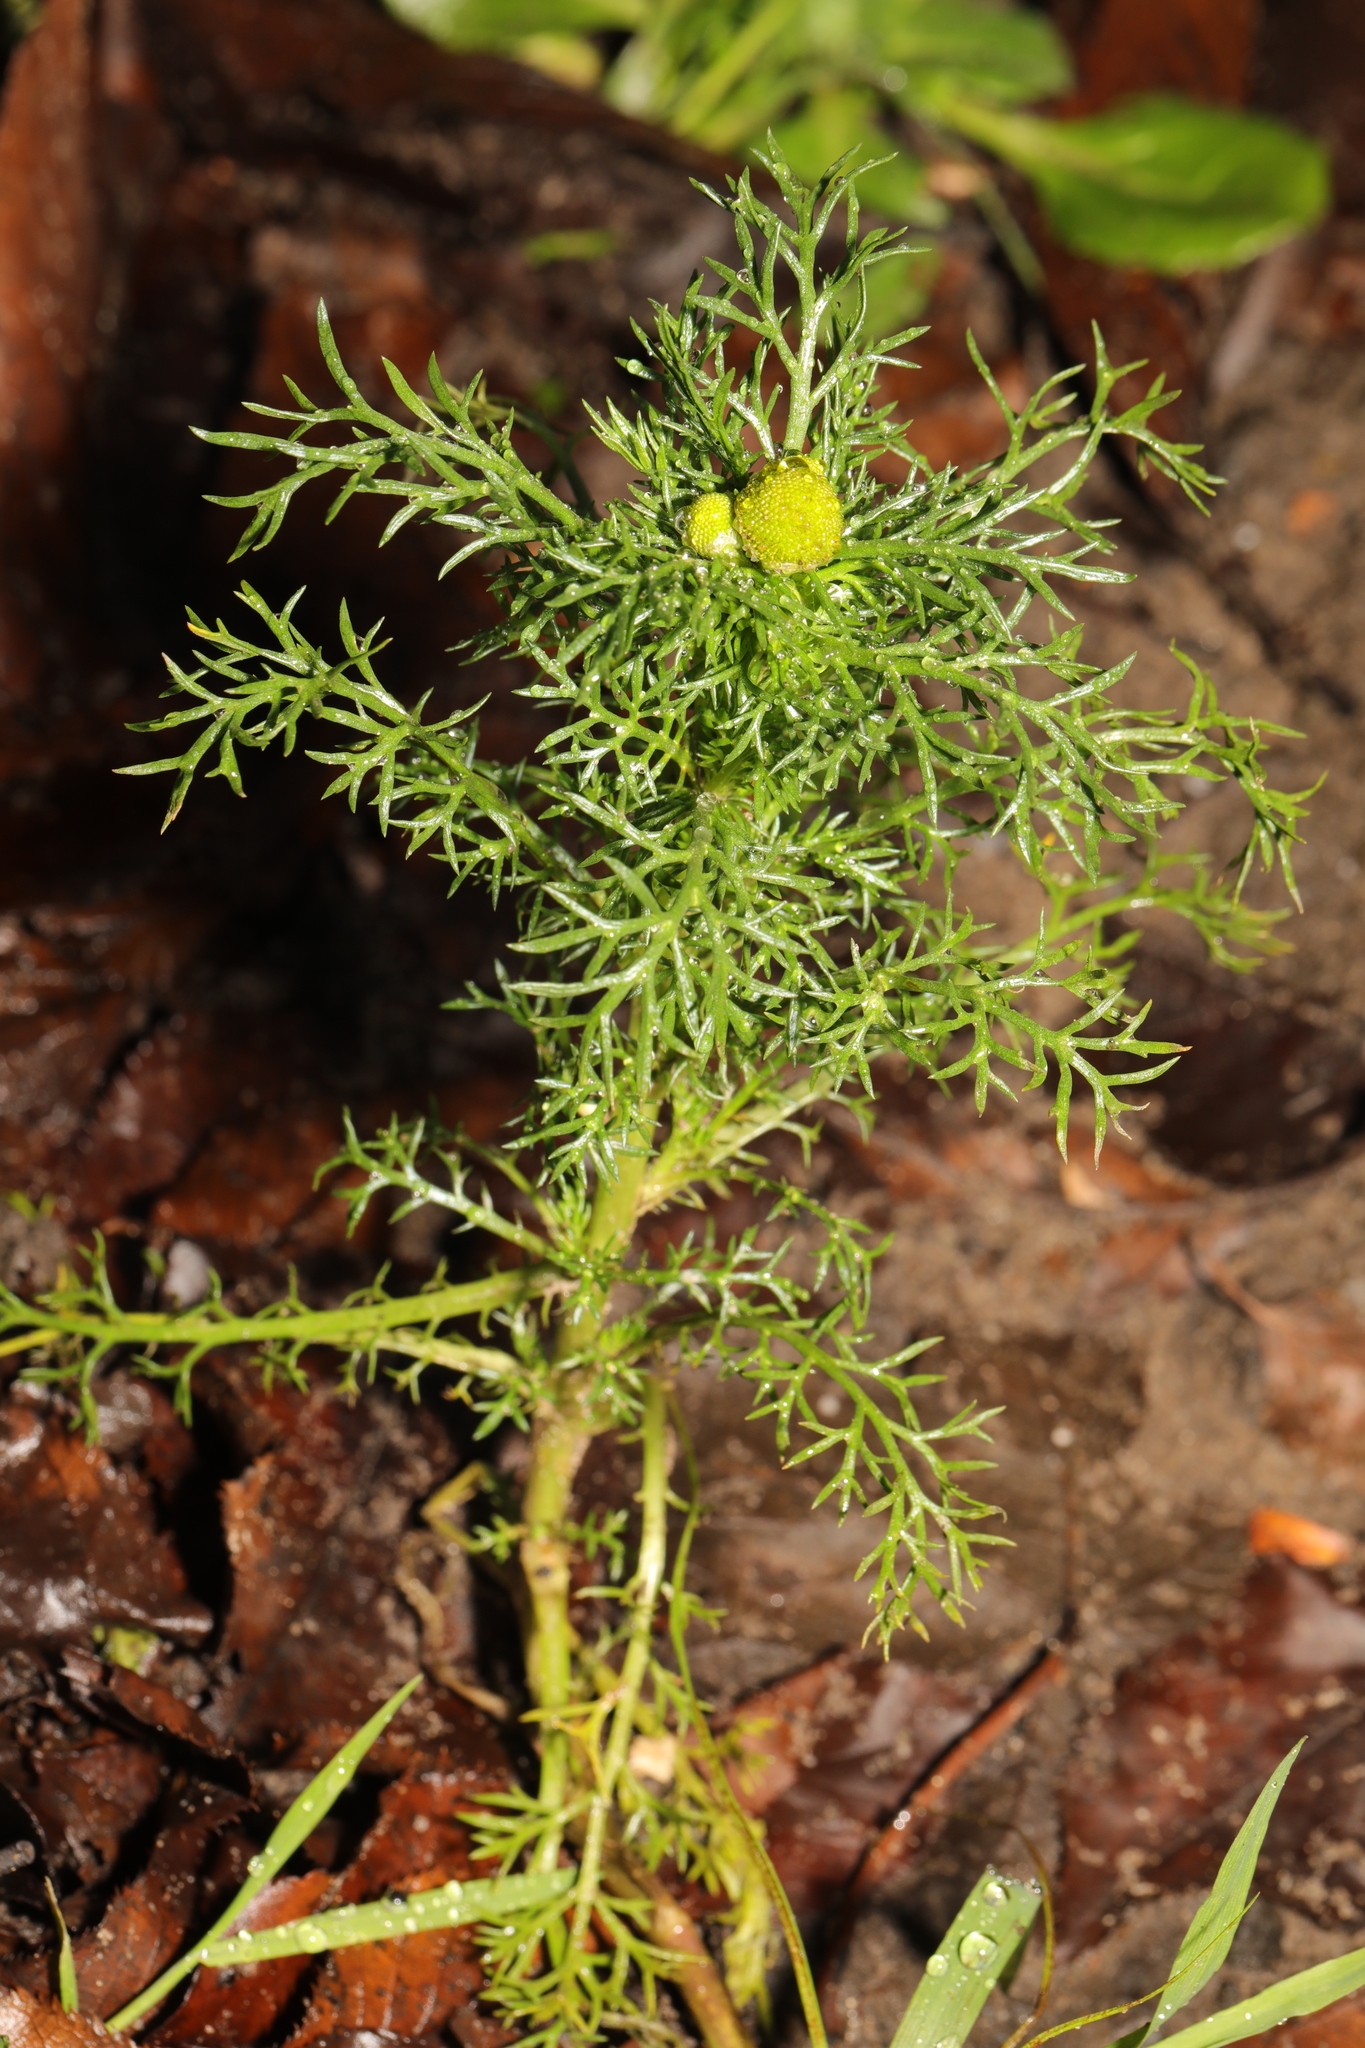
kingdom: Plantae
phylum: Tracheophyta
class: Magnoliopsida
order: Asterales
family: Asteraceae
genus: Matricaria
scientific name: Matricaria discoidea
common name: Disc mayweed
